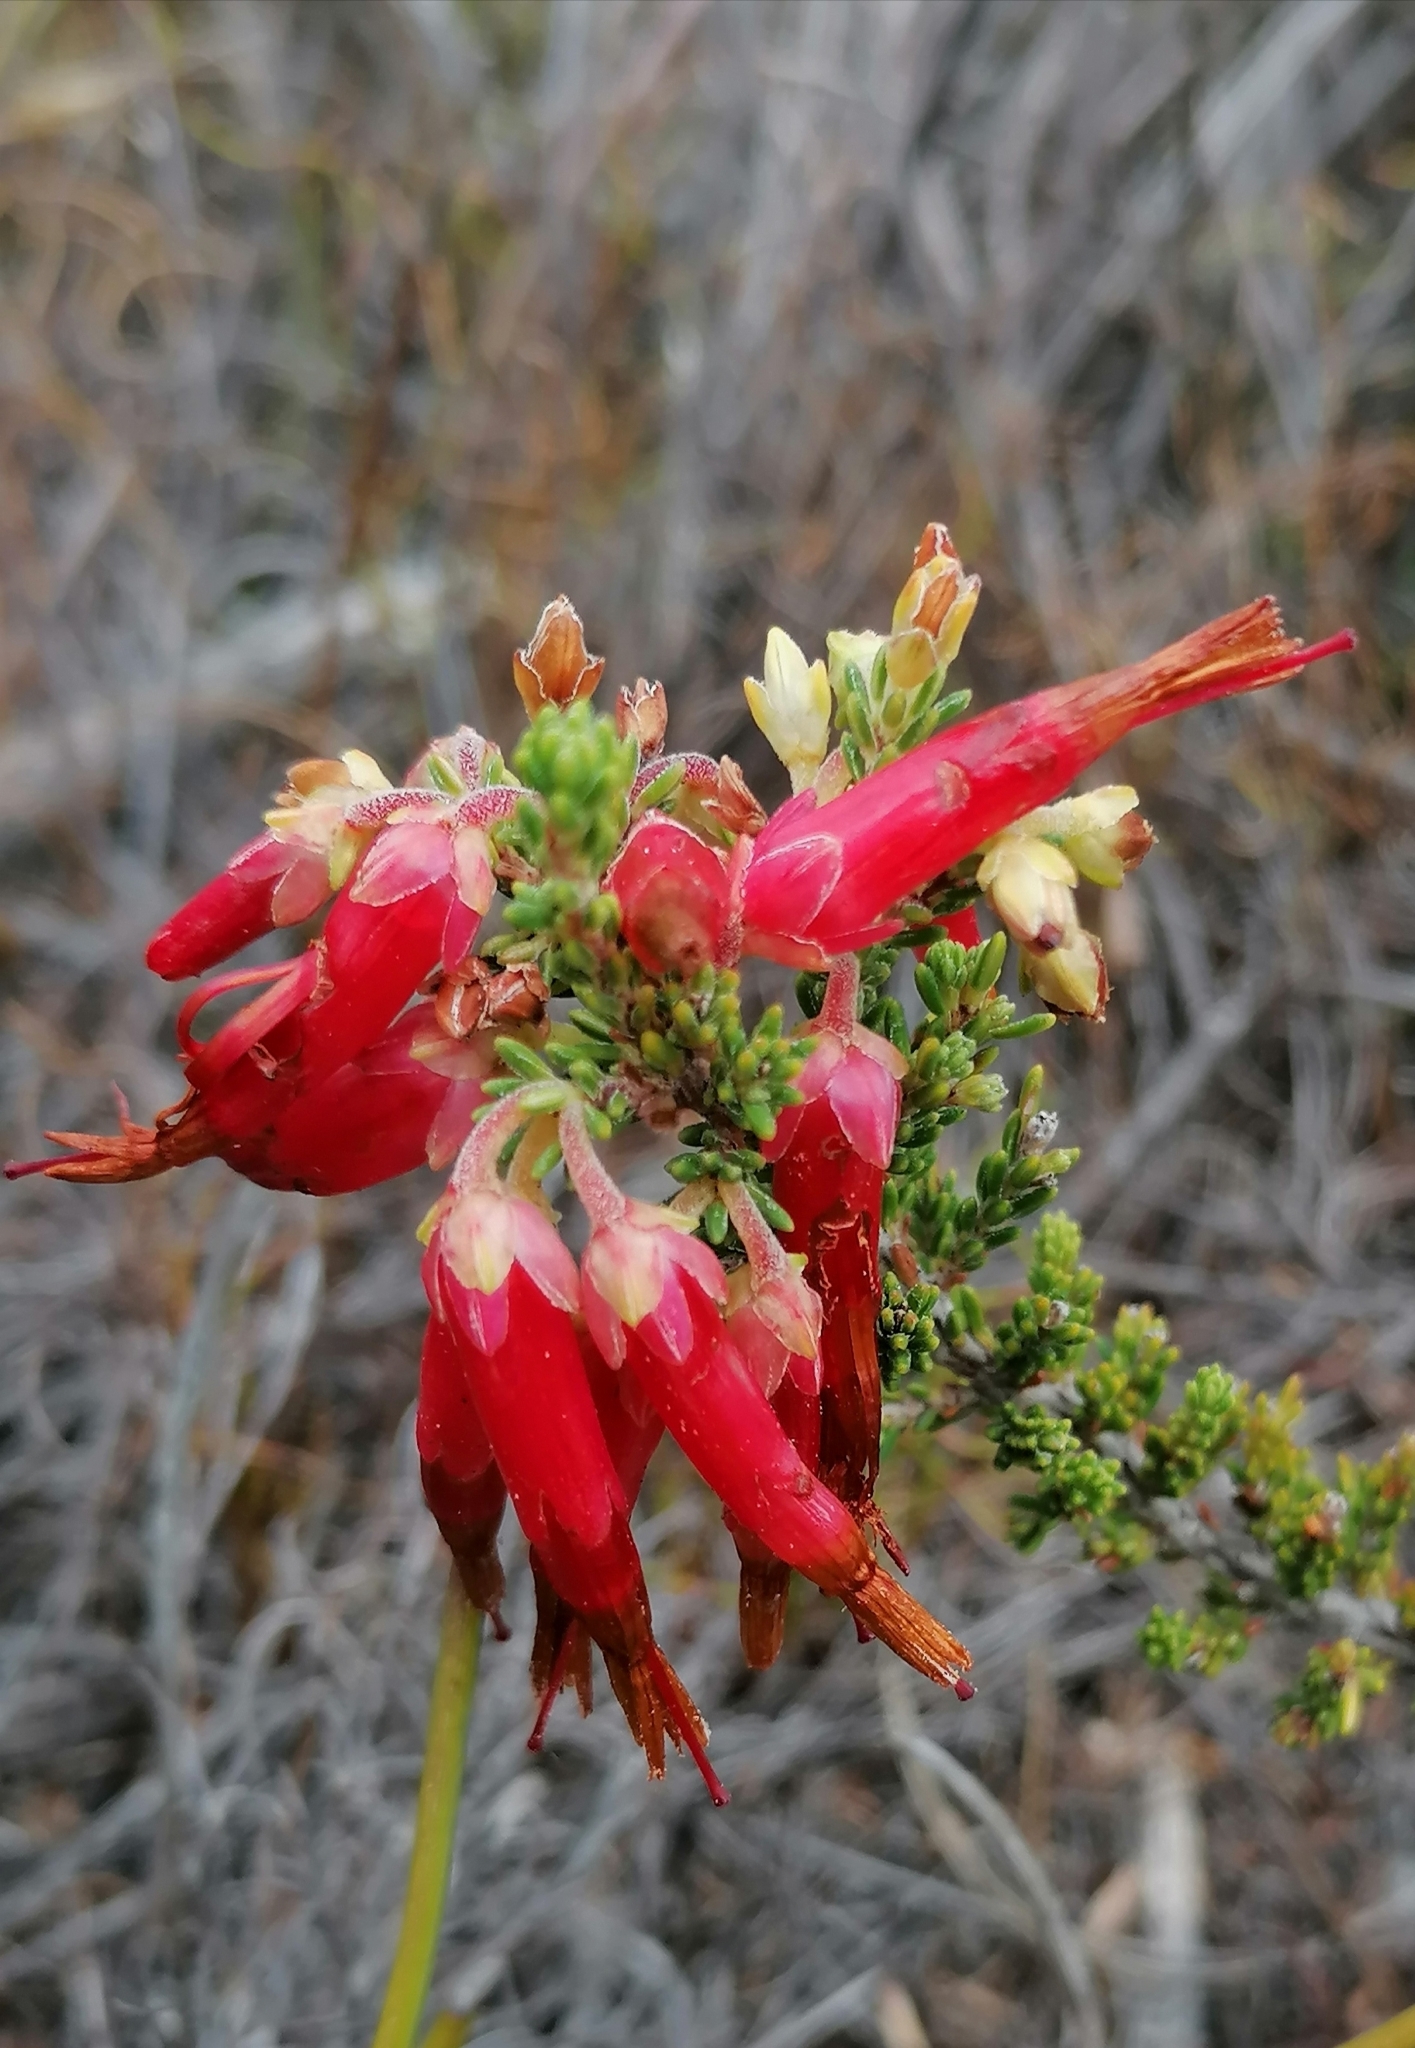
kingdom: Plantae
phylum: Tracheophyta
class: Magnoliopsida
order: Ericales
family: Ericaceae
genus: Erica
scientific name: Erica monadelphia
